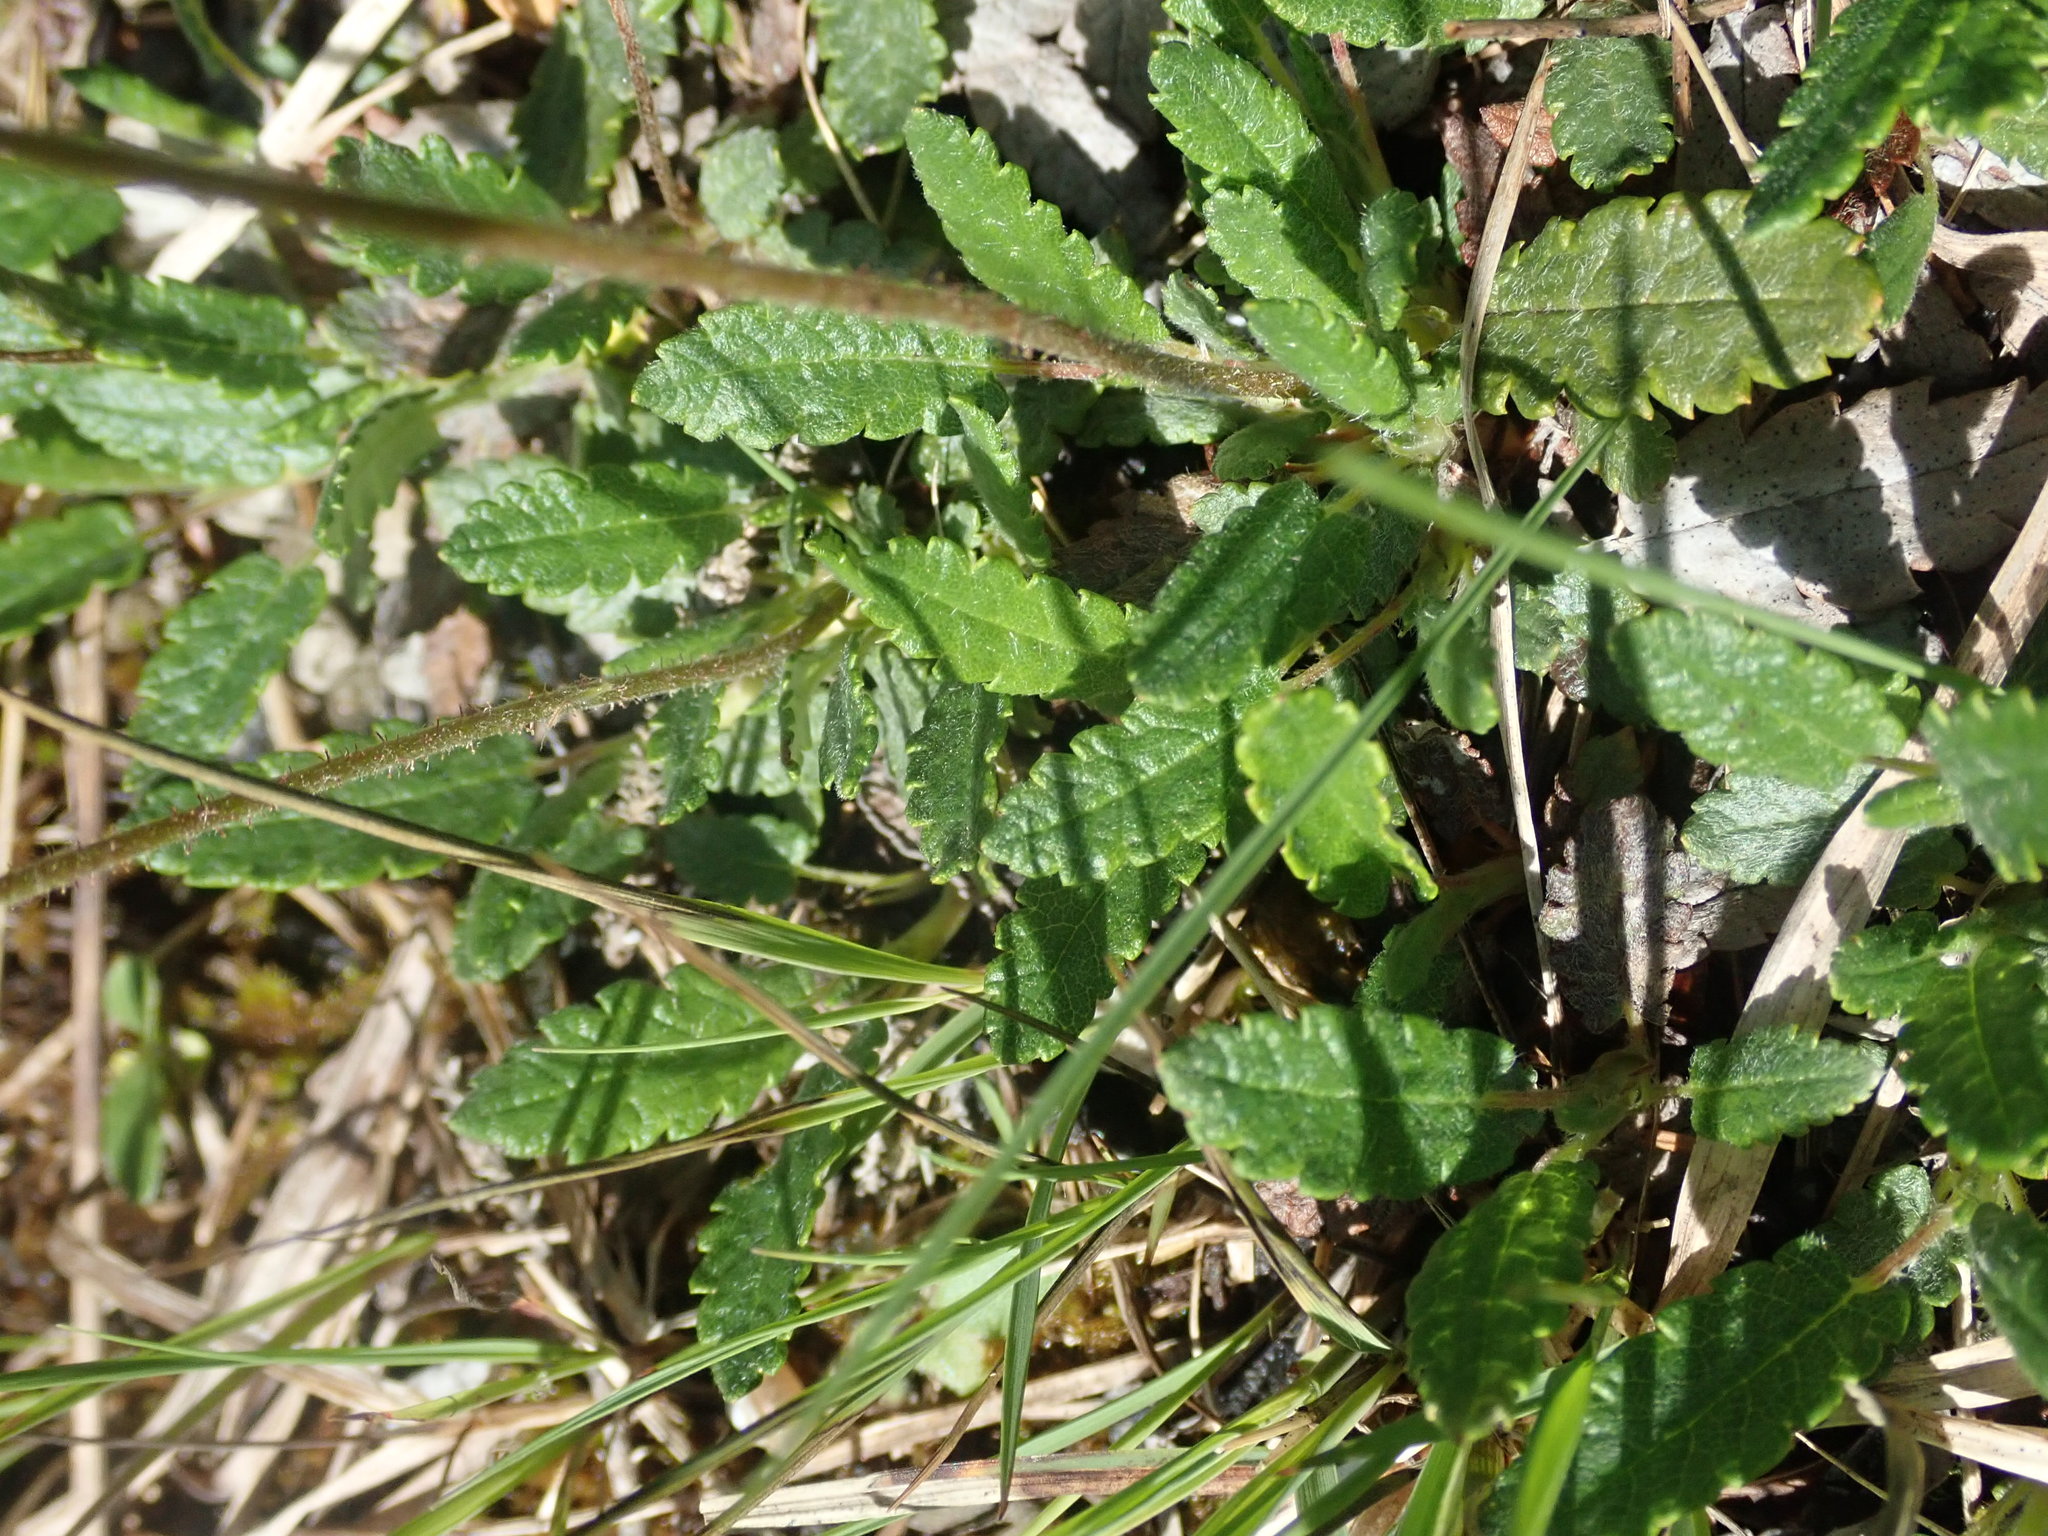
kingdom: Plantae
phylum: Tracheophyta
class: Magnoliopsida
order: Rosales
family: Rosaceae
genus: Dryas
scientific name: Dryas octopetala
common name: Eight-petal mountain-avens
